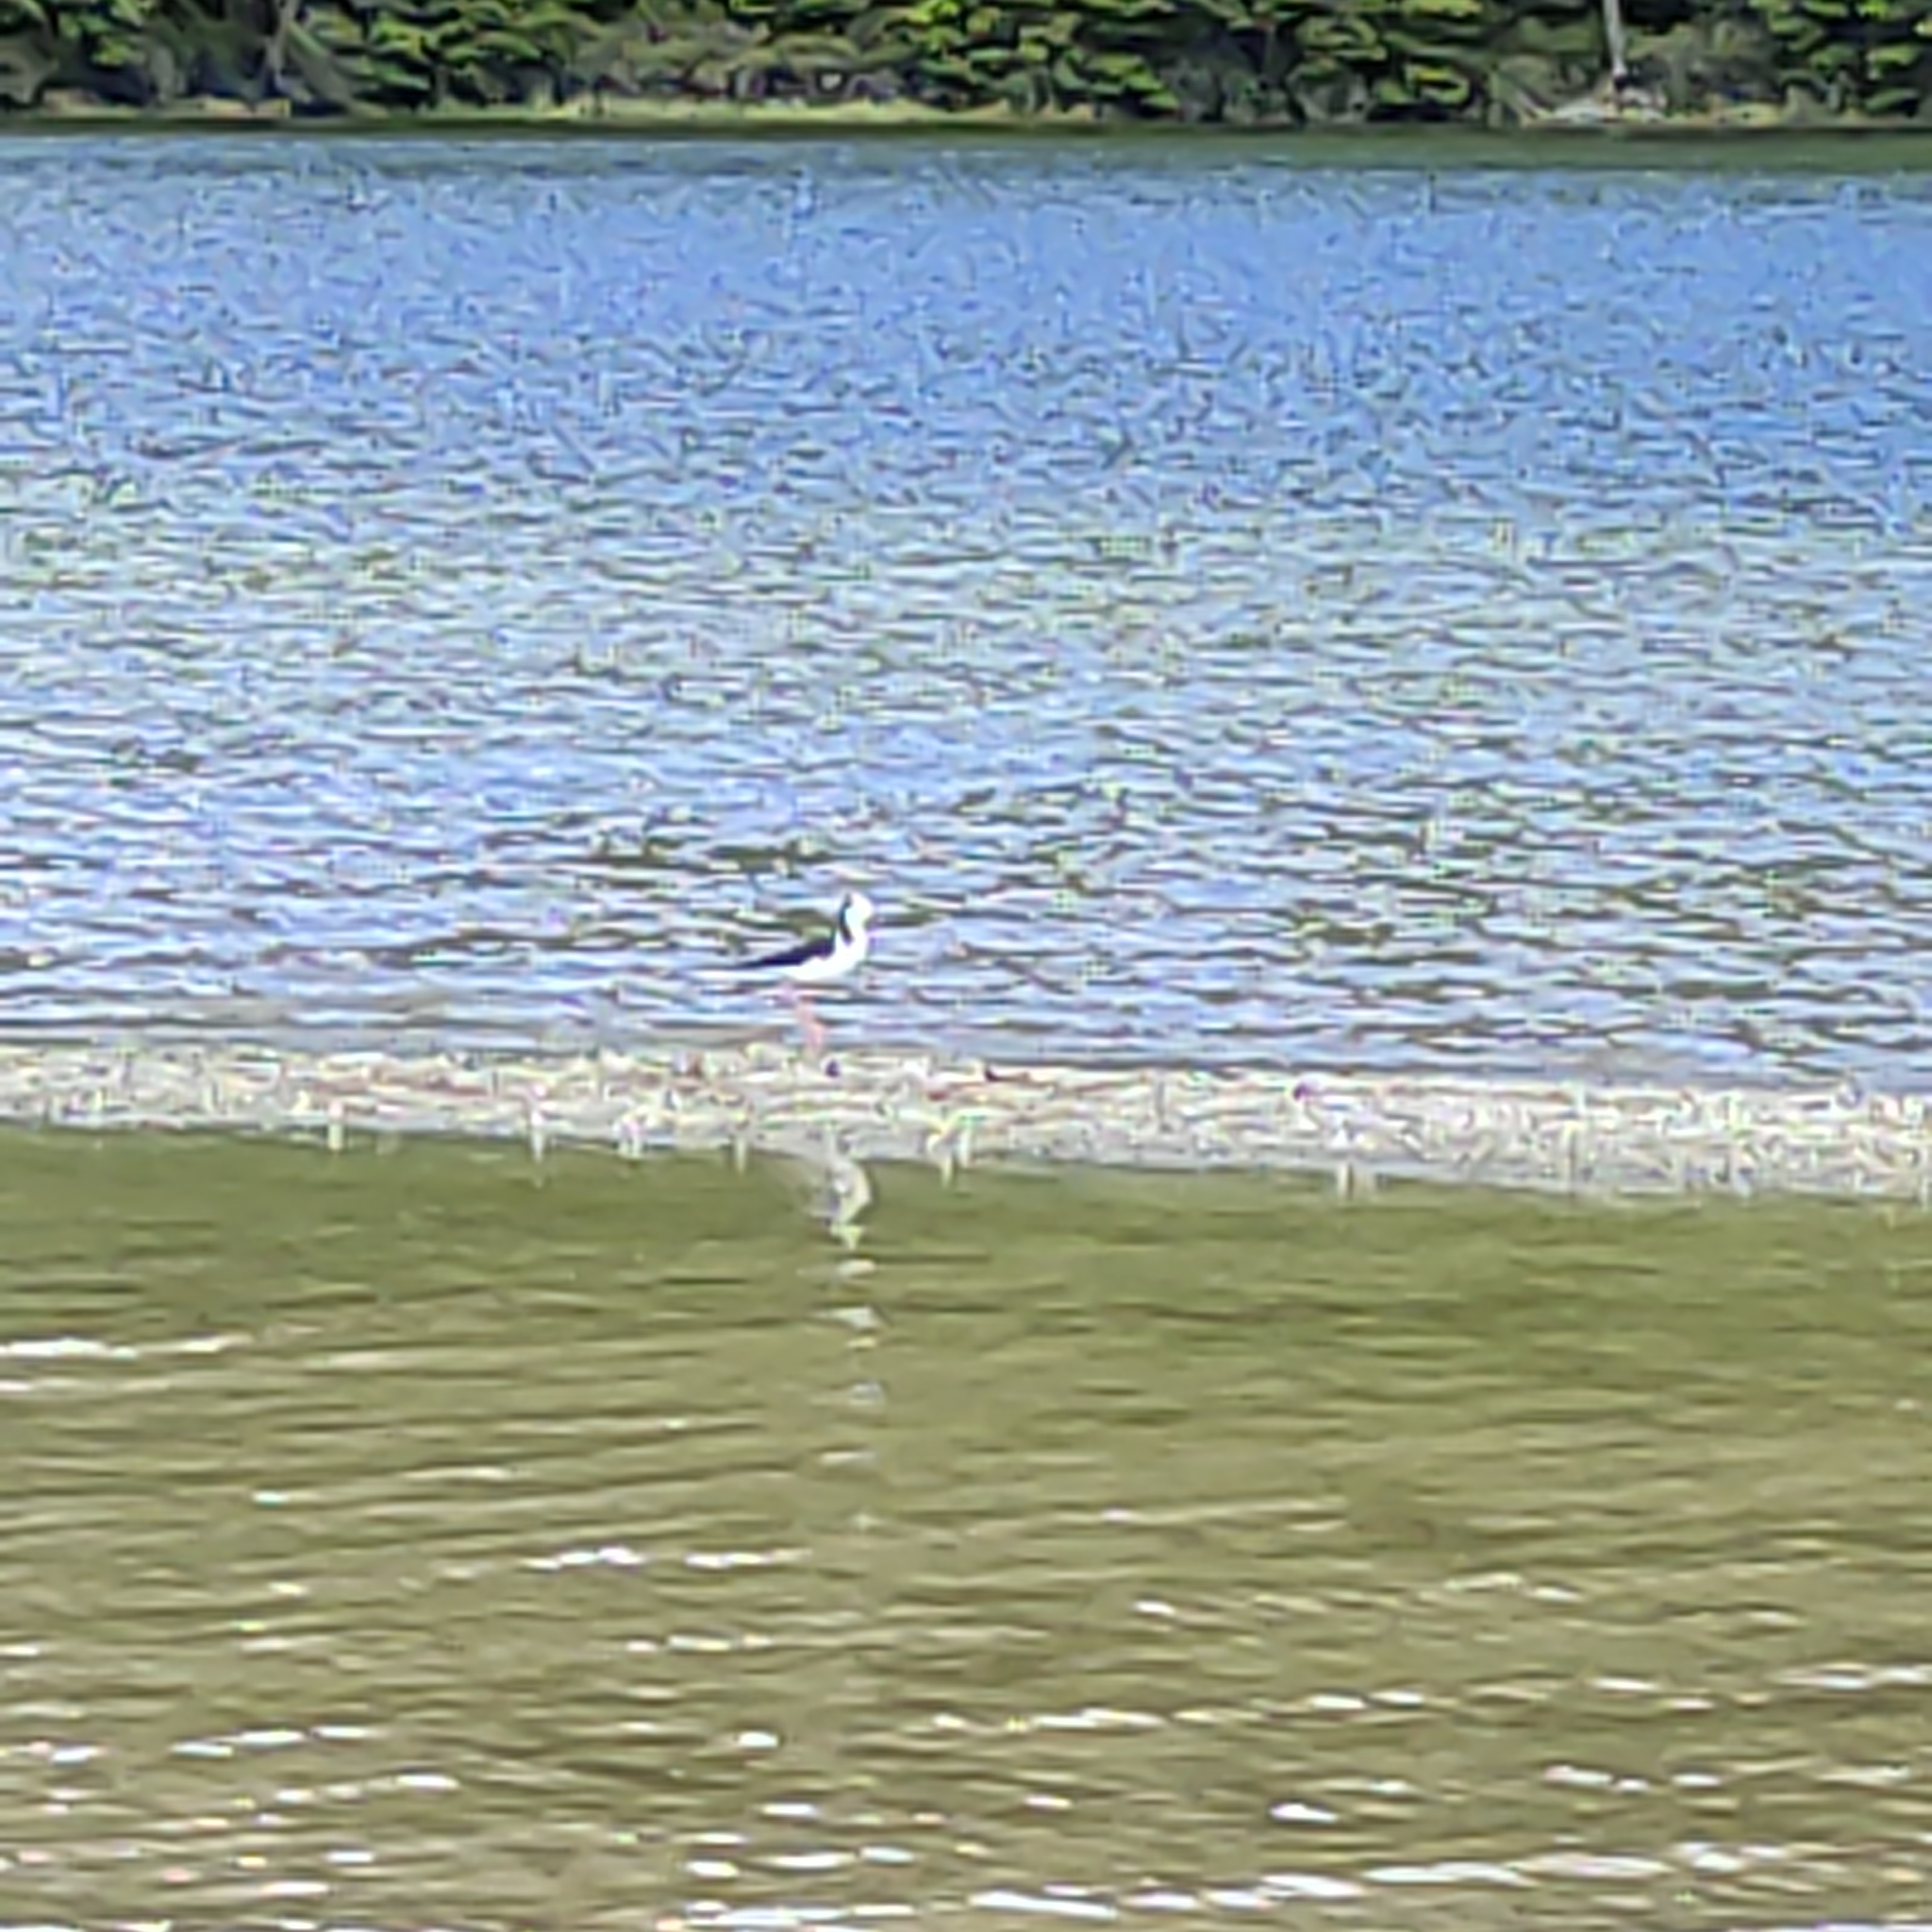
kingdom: Animalia
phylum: Chordata
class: Aves
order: Charadriiformes
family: Recurvirostridae
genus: Himantopus
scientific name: Himantopus leucocephalus
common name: White-headed stilt
